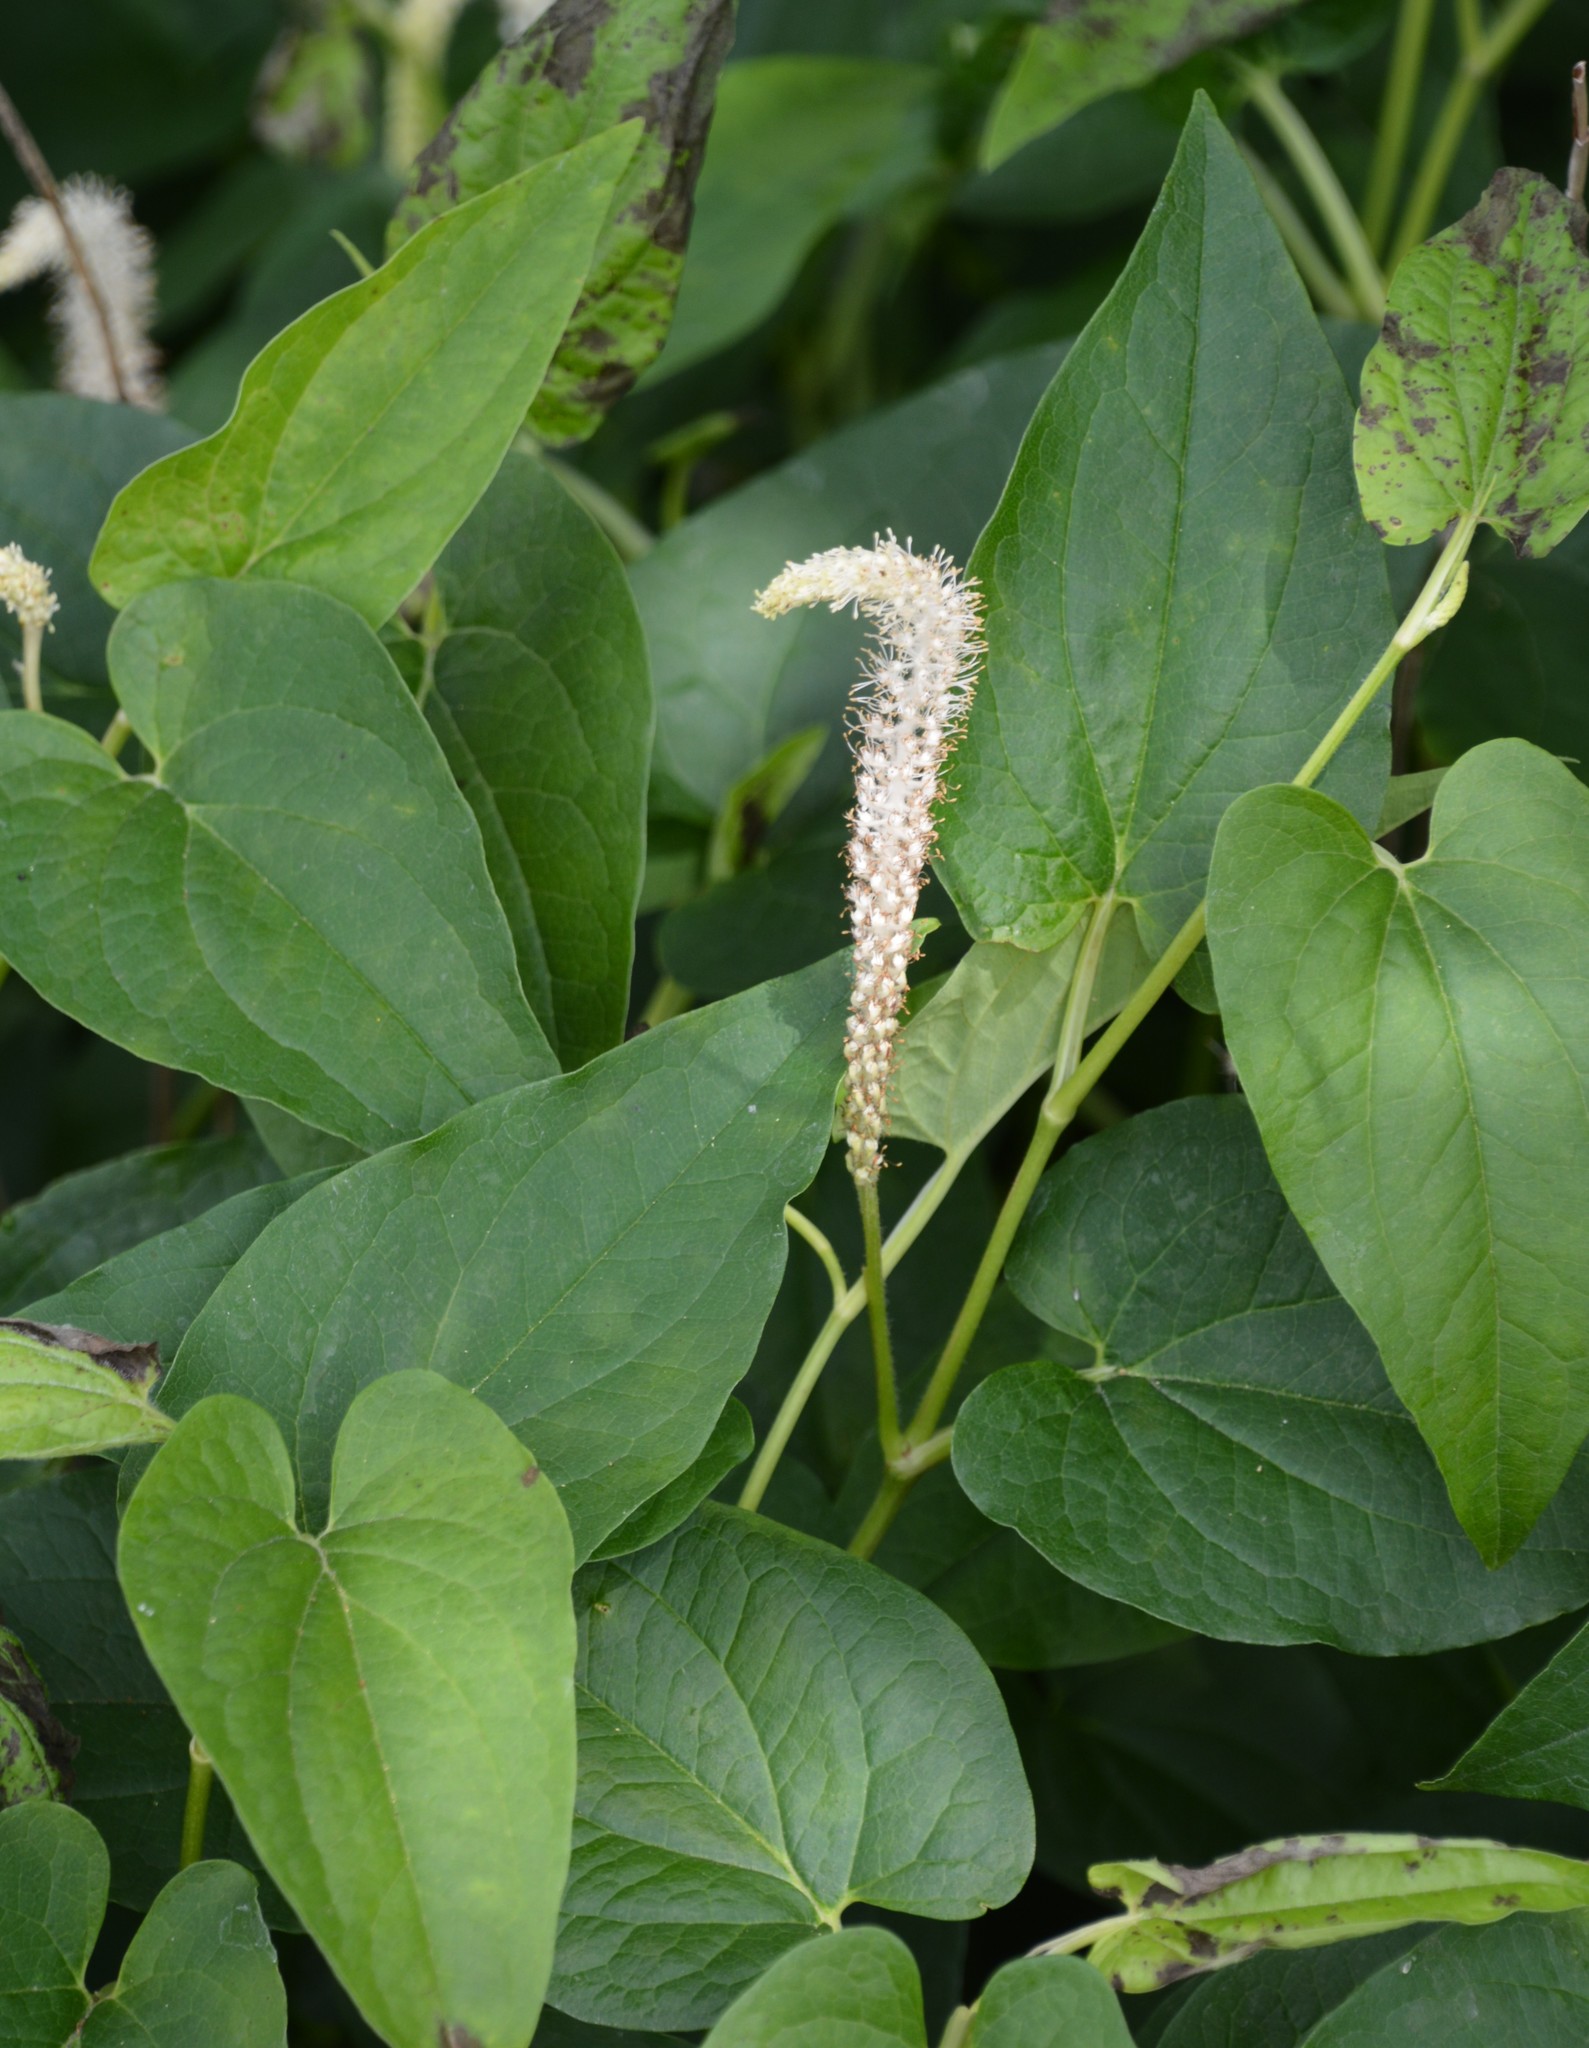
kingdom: Plantae
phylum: Tracheophyta
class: Magnoliopsida
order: Piperales
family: Saururaceae
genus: Saururus
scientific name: Saururus cernuus
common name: Lizard's-tail
